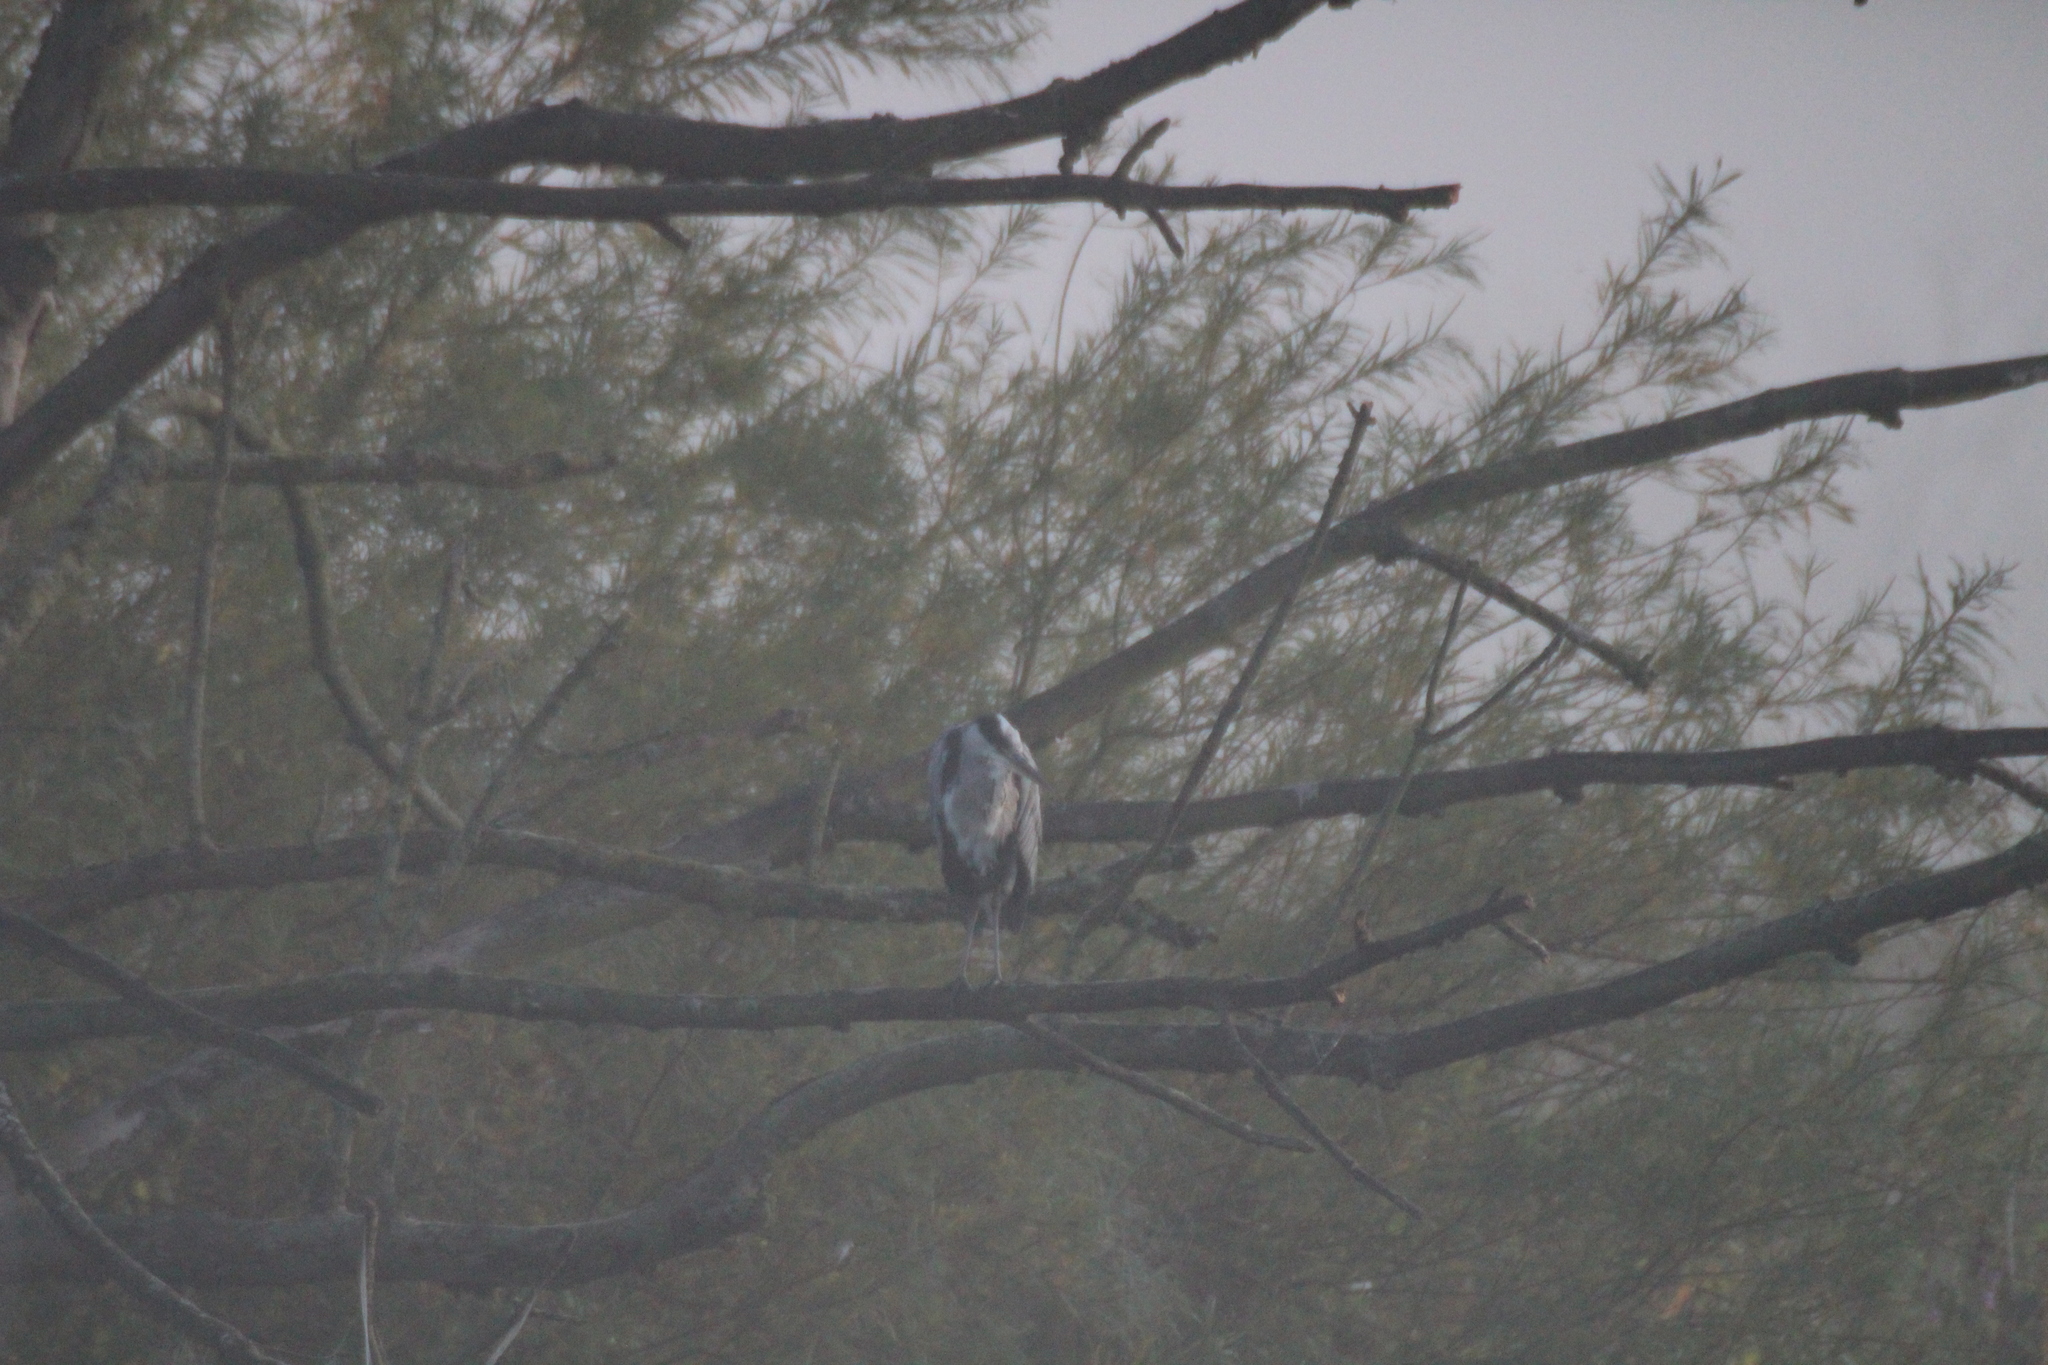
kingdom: Animalia
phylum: Chordata
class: Aves
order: Pelecaniformes
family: Ardeidae
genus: Ardea
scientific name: Ardea cinerea
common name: Grey heron
